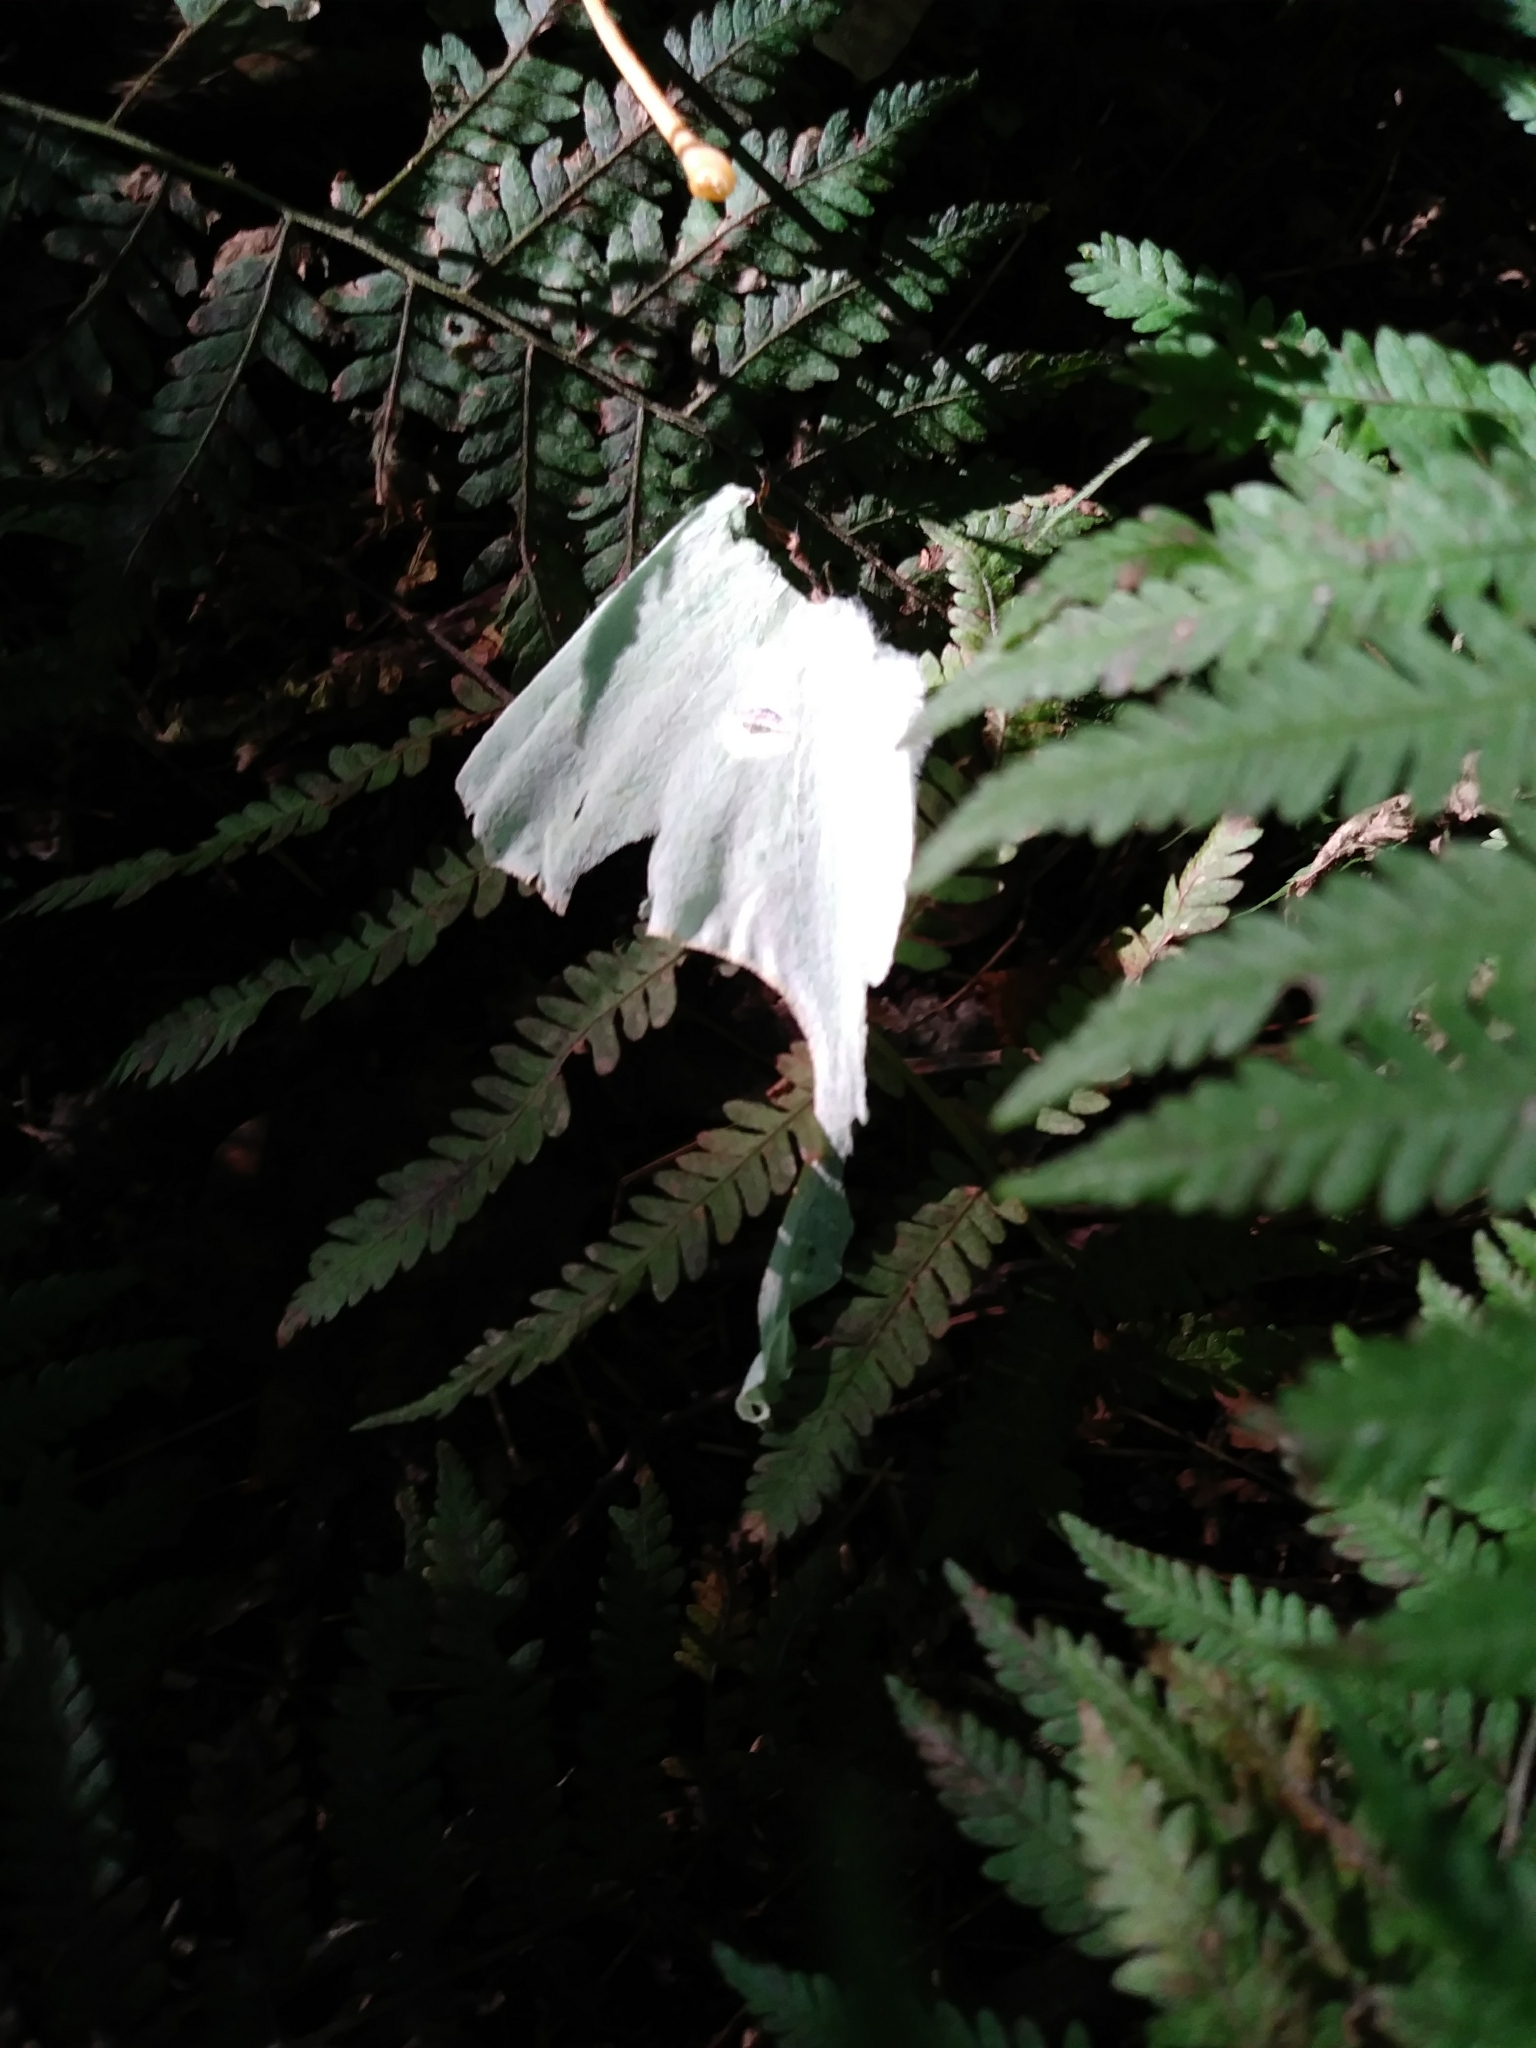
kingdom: Animalia
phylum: Arthropoda
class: Insecta
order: Lepidoptera
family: Saturniidae
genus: Actias
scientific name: Actias luna
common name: Luna moth
